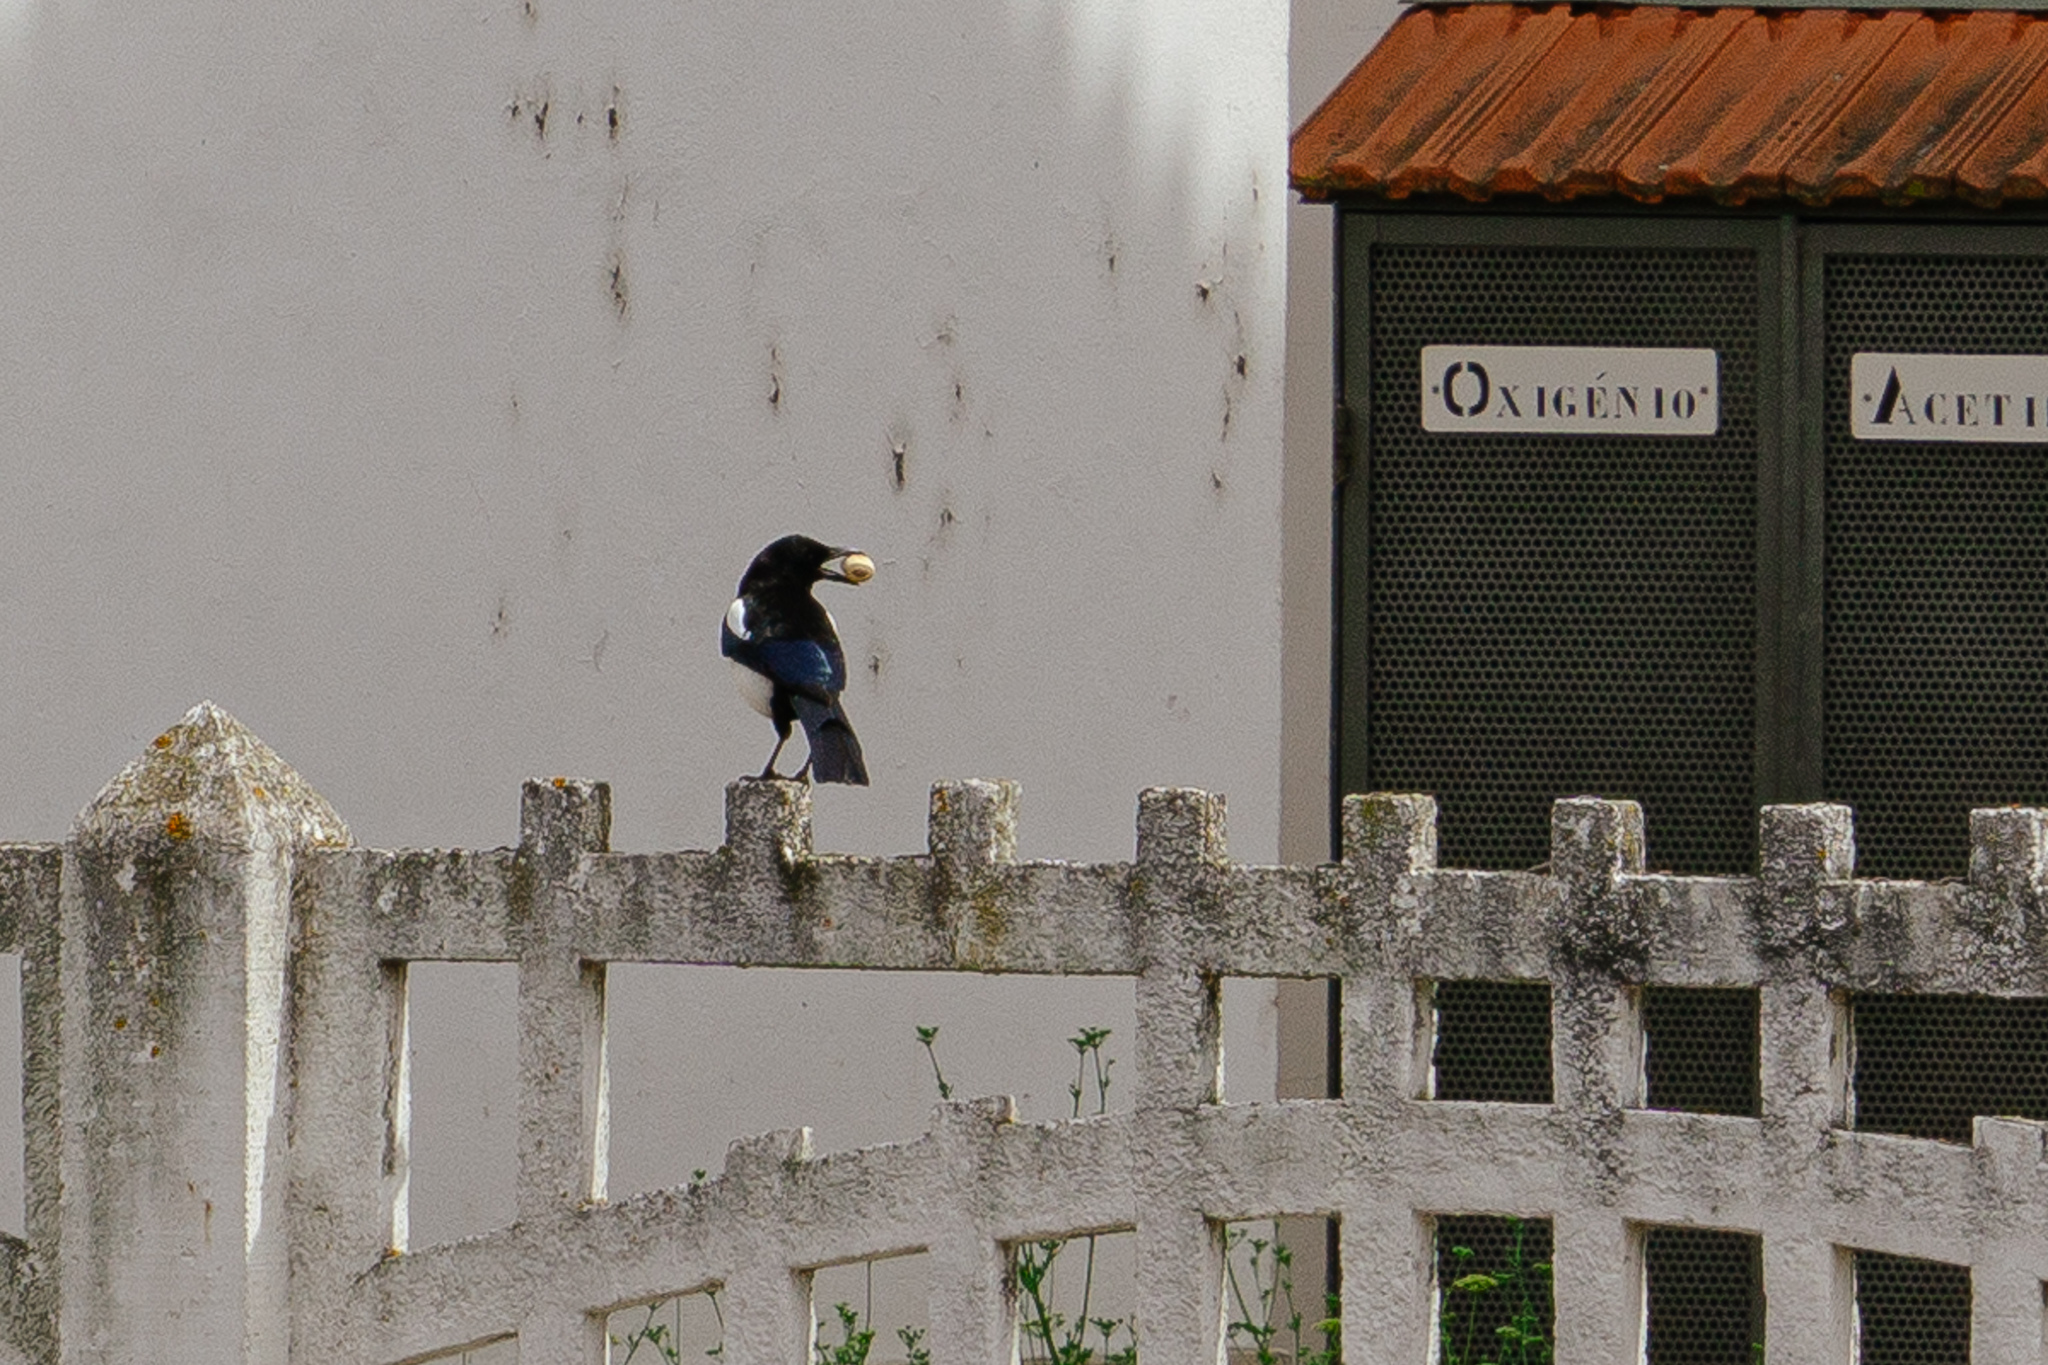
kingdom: Animalia
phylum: Chordata
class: Aves
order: Passeriformes
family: Corvidae
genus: Pica
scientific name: Pica pica
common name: Eurasian magpie
